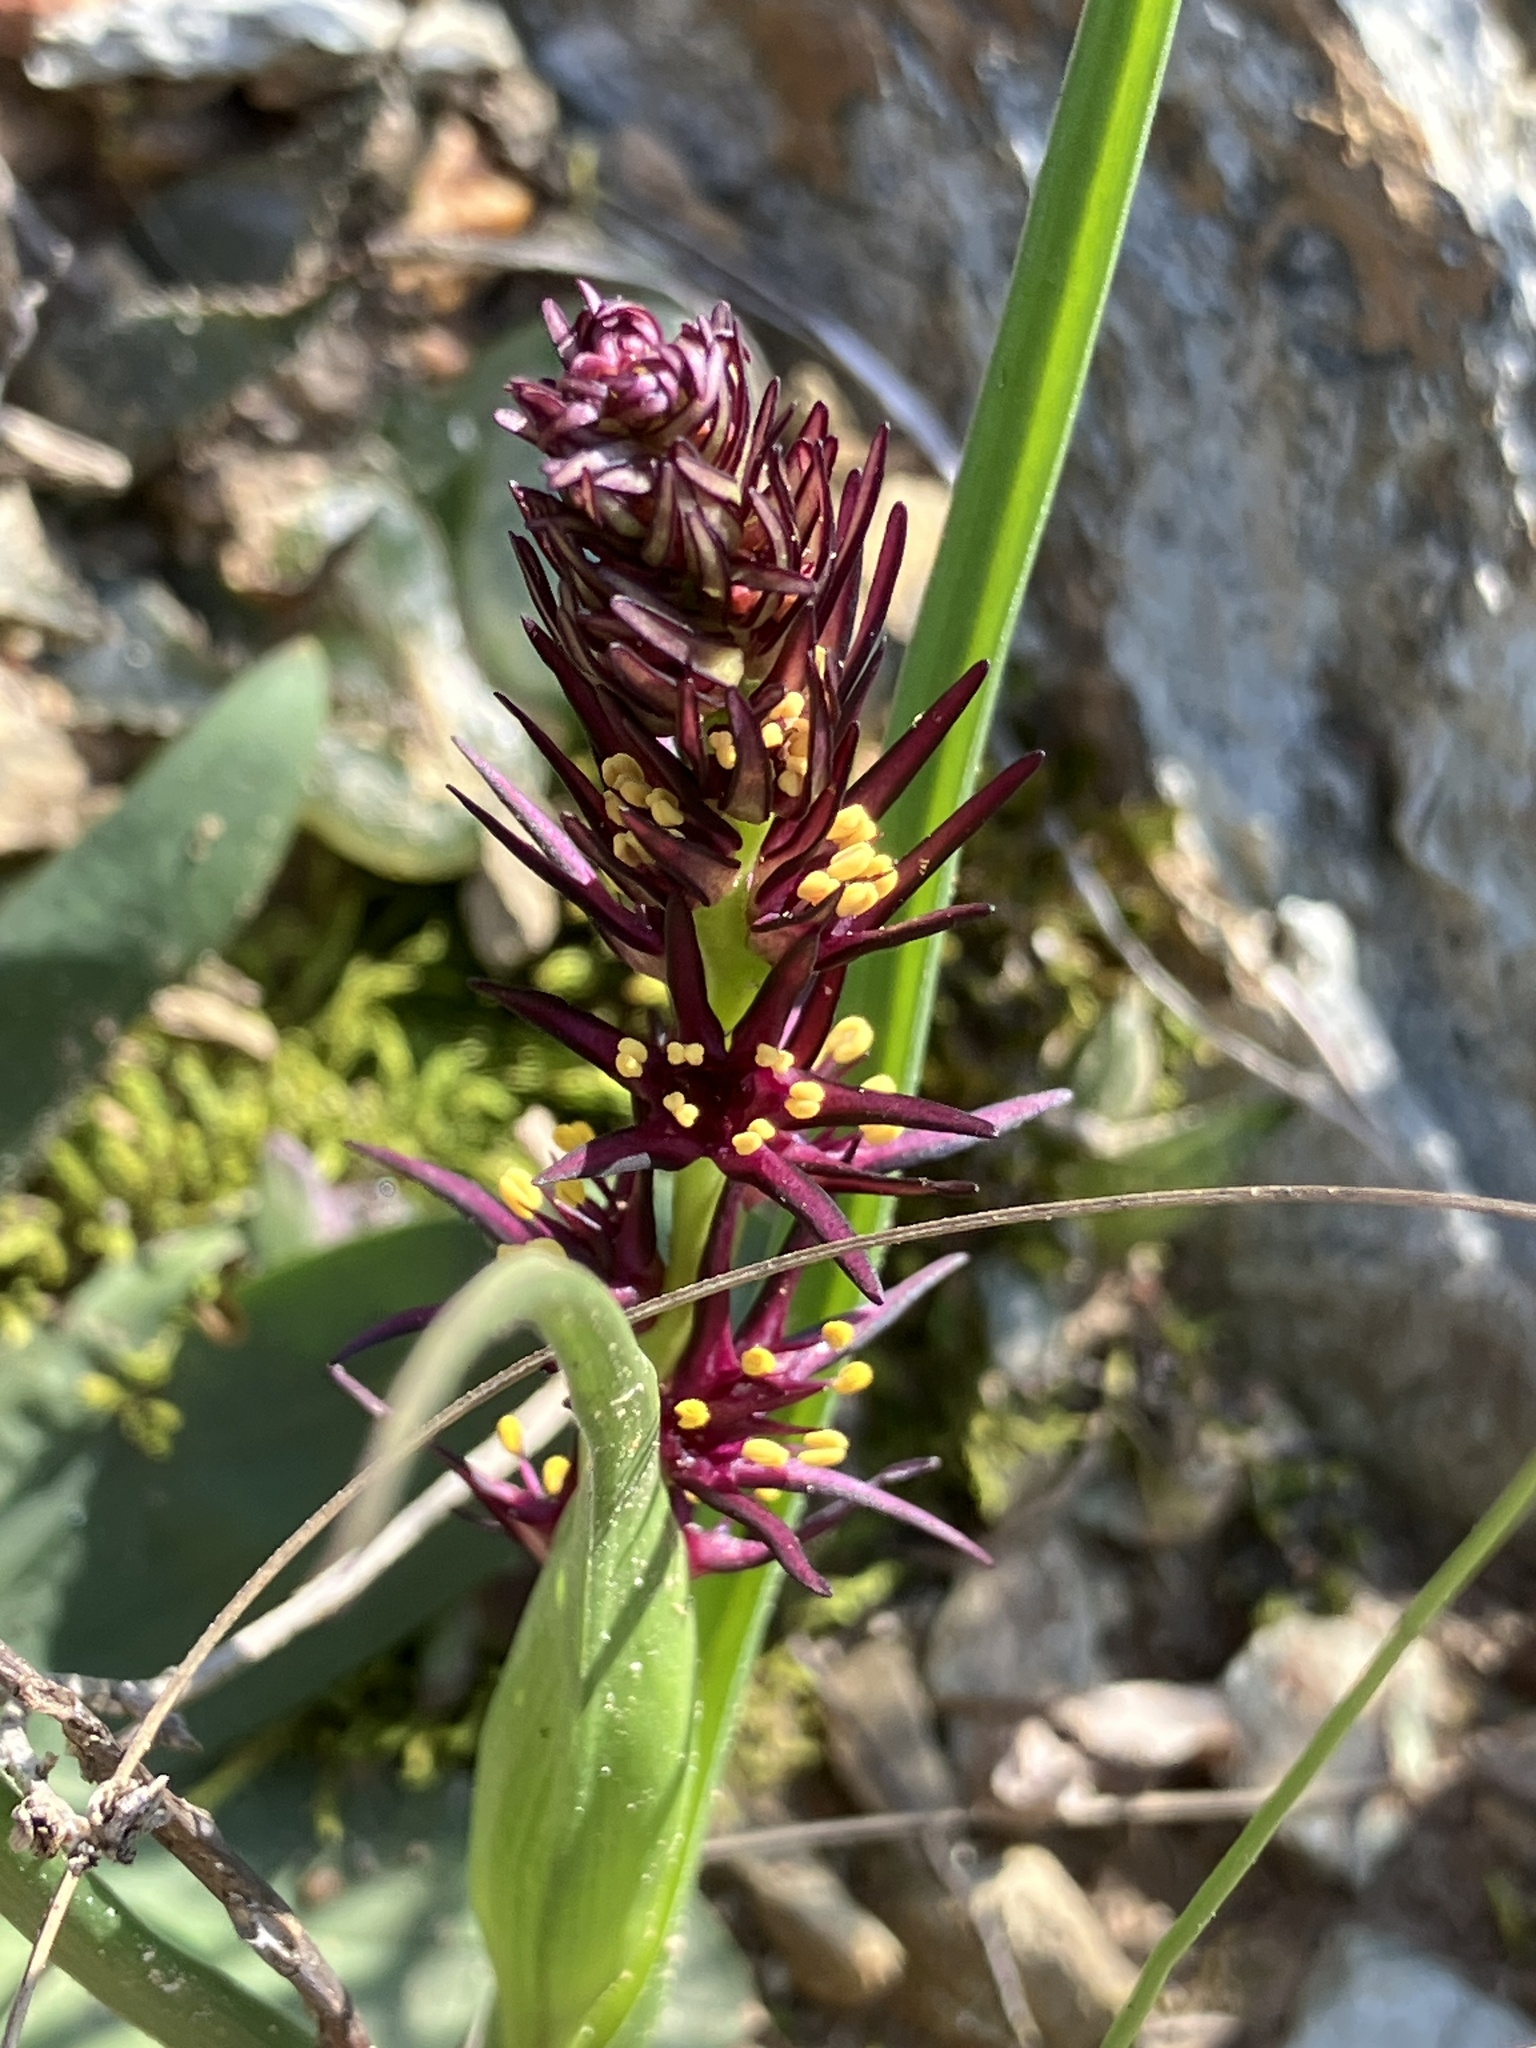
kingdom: Plantae
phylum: Tracheophyta
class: Liliopsida
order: Liliales
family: Colchicaceae
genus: Wurmbea
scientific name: Wurmbea marginata
